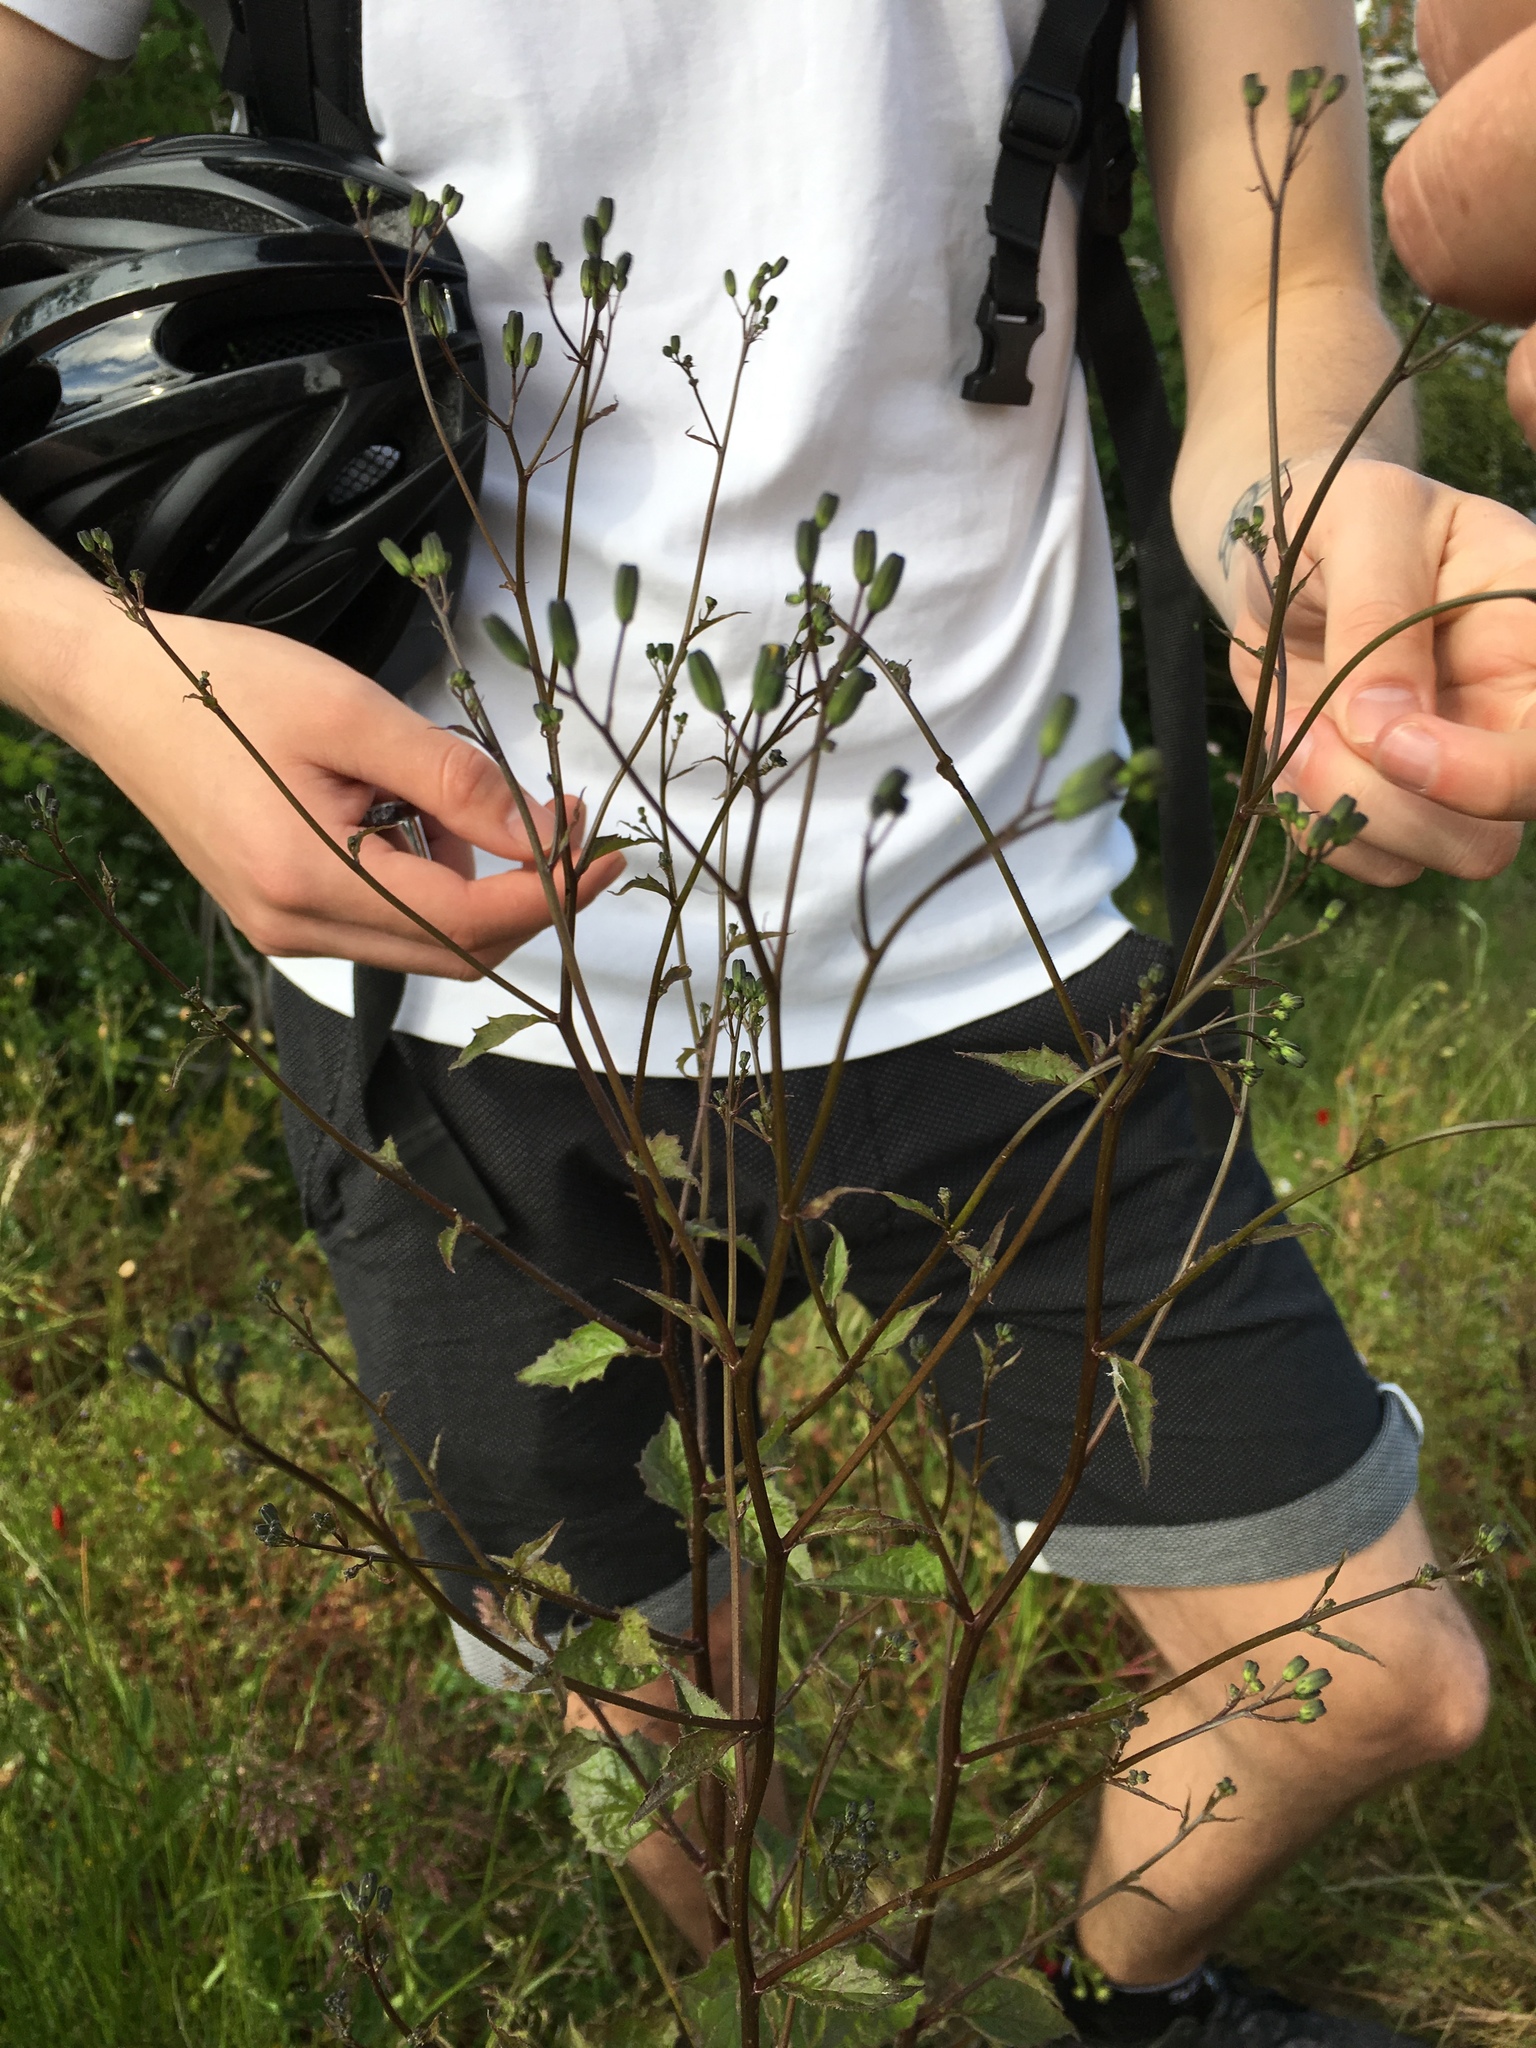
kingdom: Plantae
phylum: Tracheophyta
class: Magnoliopsida
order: Asterales
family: Asteraceae
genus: Lapsana
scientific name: Lapsana communis
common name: Nipplewort
